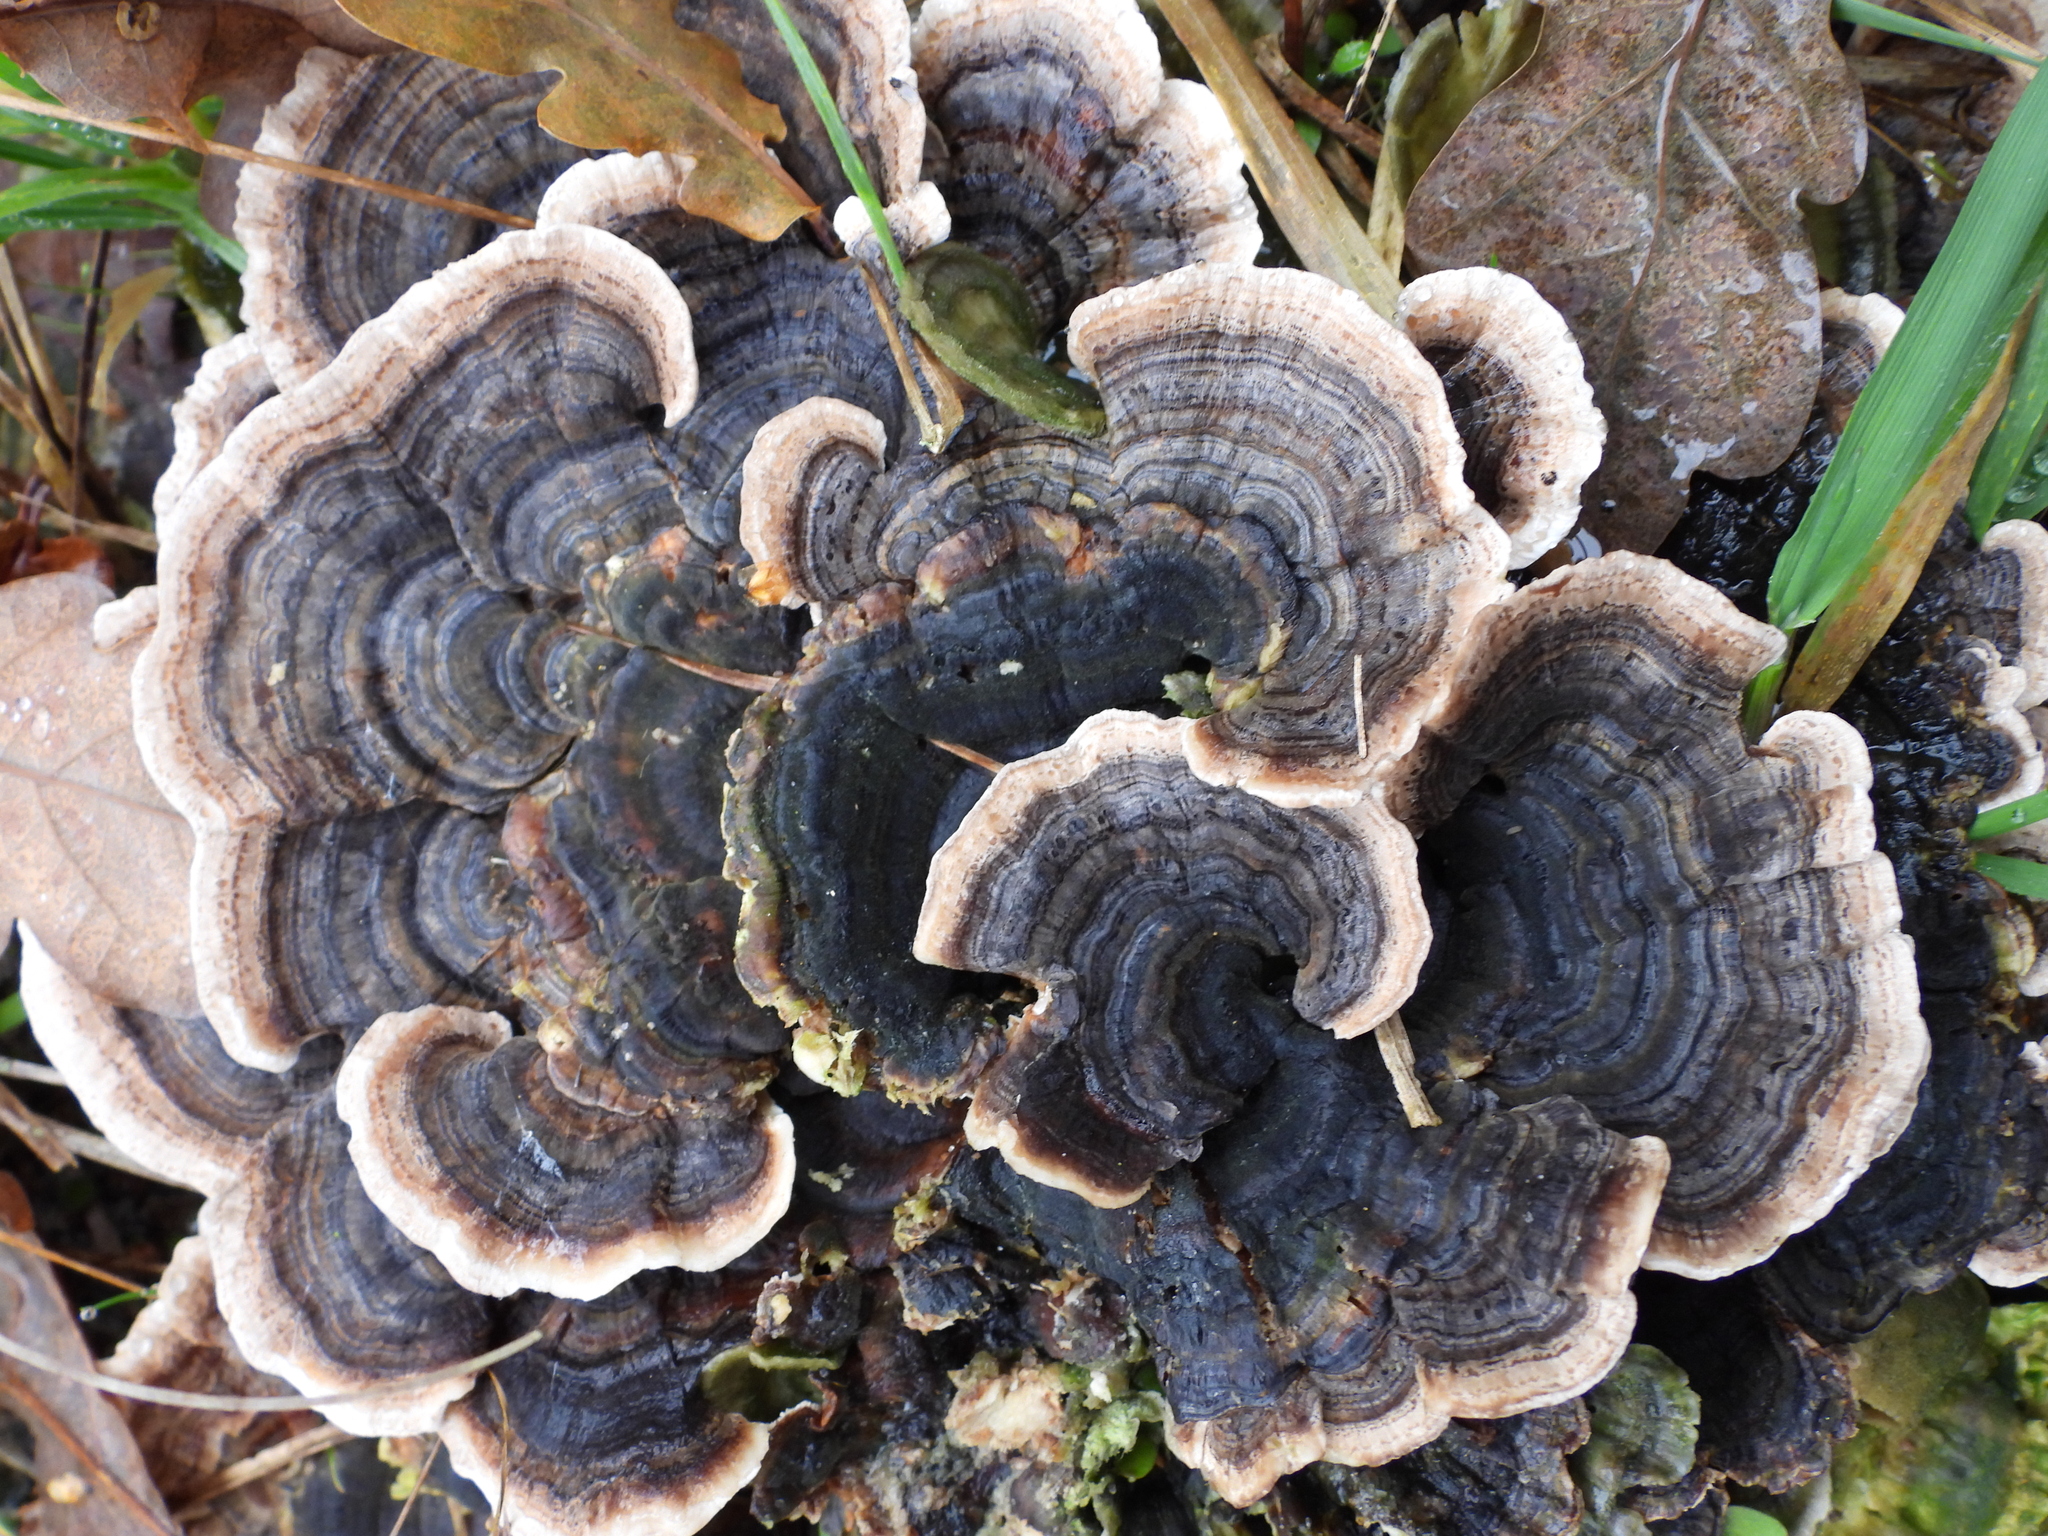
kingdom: Fungi
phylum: Basidiomycota
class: Agaricomycetes
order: Polyporales
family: Polyporaceae
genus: Trametes
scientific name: Trametes versicolor
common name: Turkeytail
